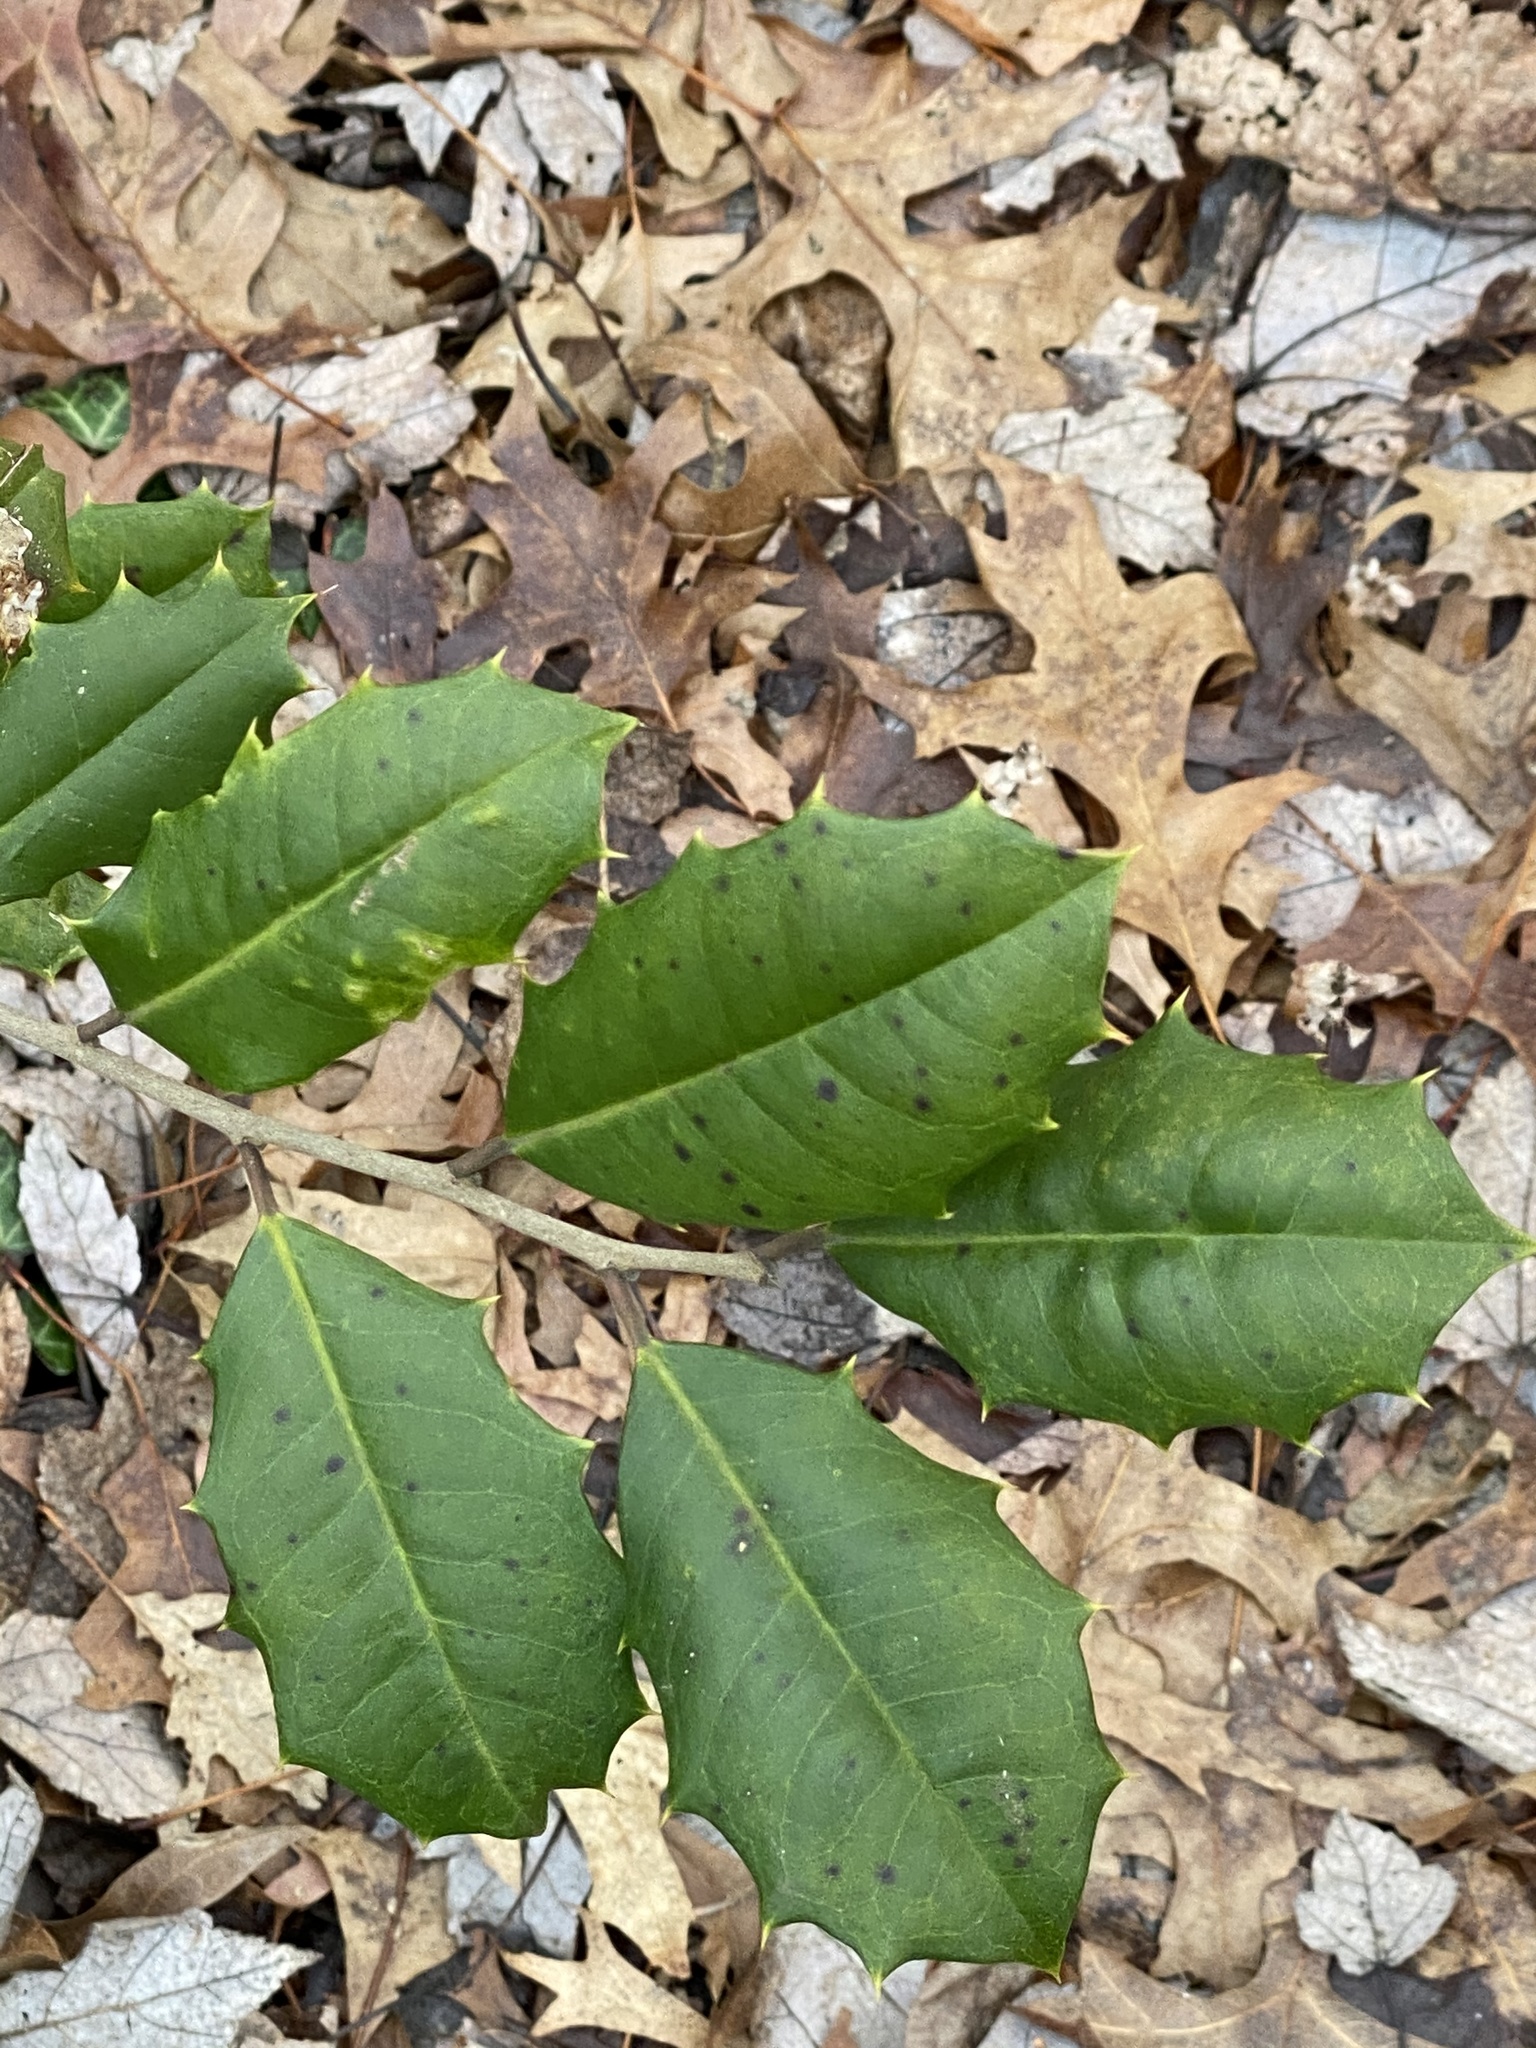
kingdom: Plantae
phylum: Tracheophyta
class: Magnoliopsida
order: Aquifoliales
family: Aquifoliaceae
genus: Ilex
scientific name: Ilex opaca
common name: American holly
